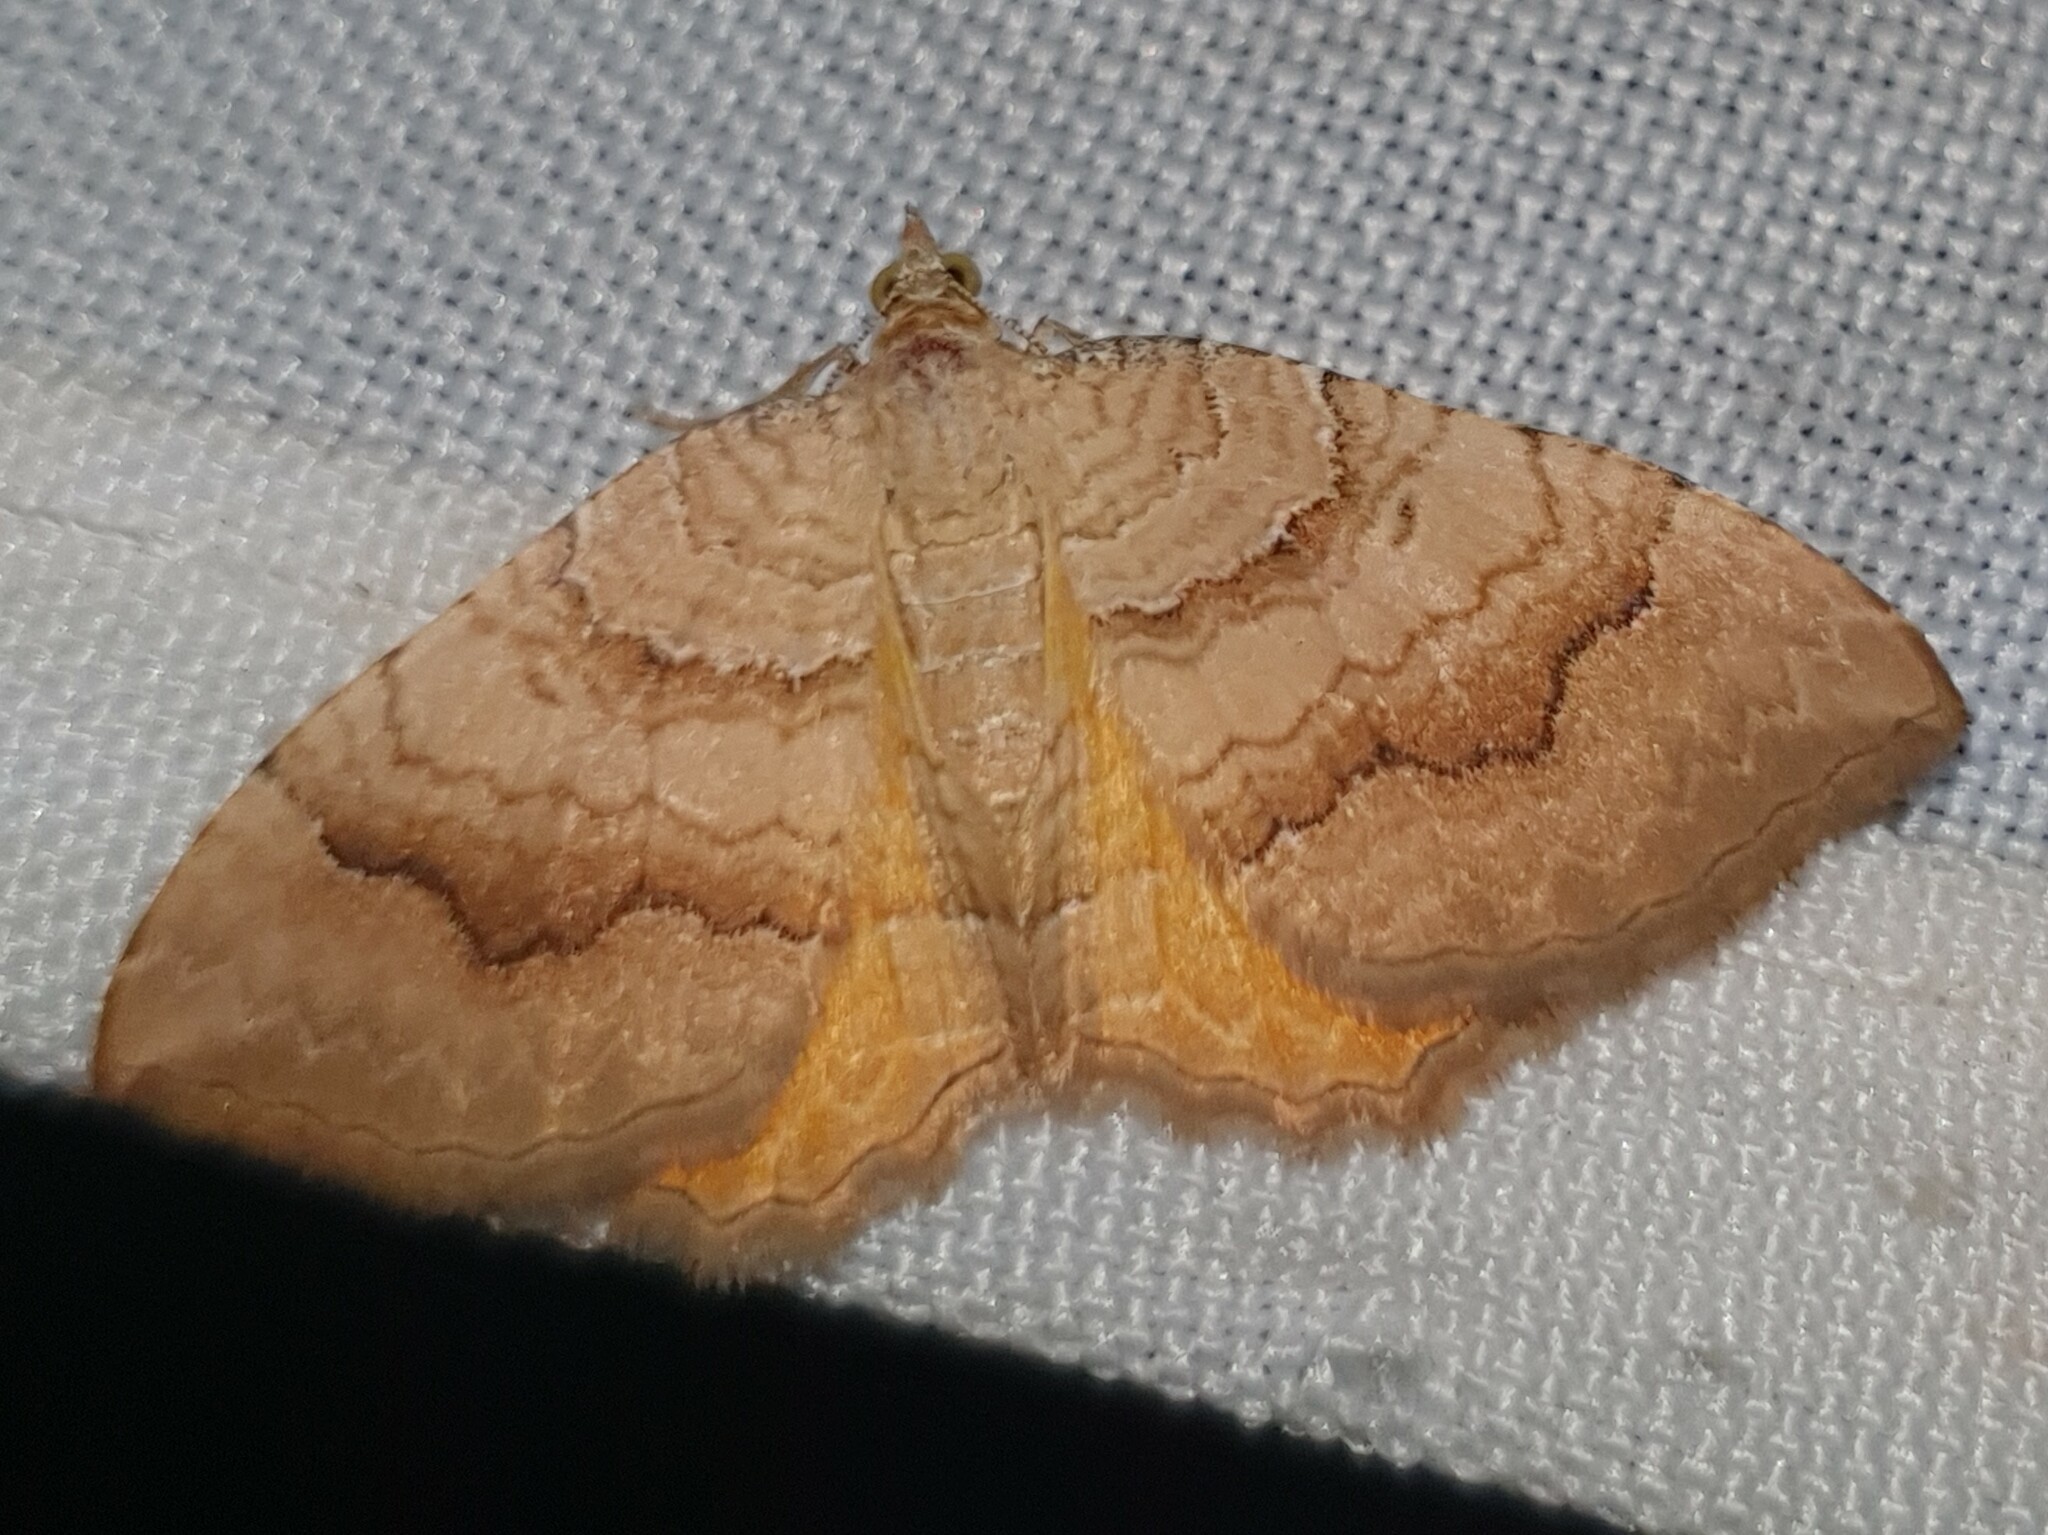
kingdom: Animalia
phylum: Arthropoda
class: Insecta
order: Lepidoptera
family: Geometridae
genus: Camptogramma
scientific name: Camptogramma bilineata
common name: Yellow shell
